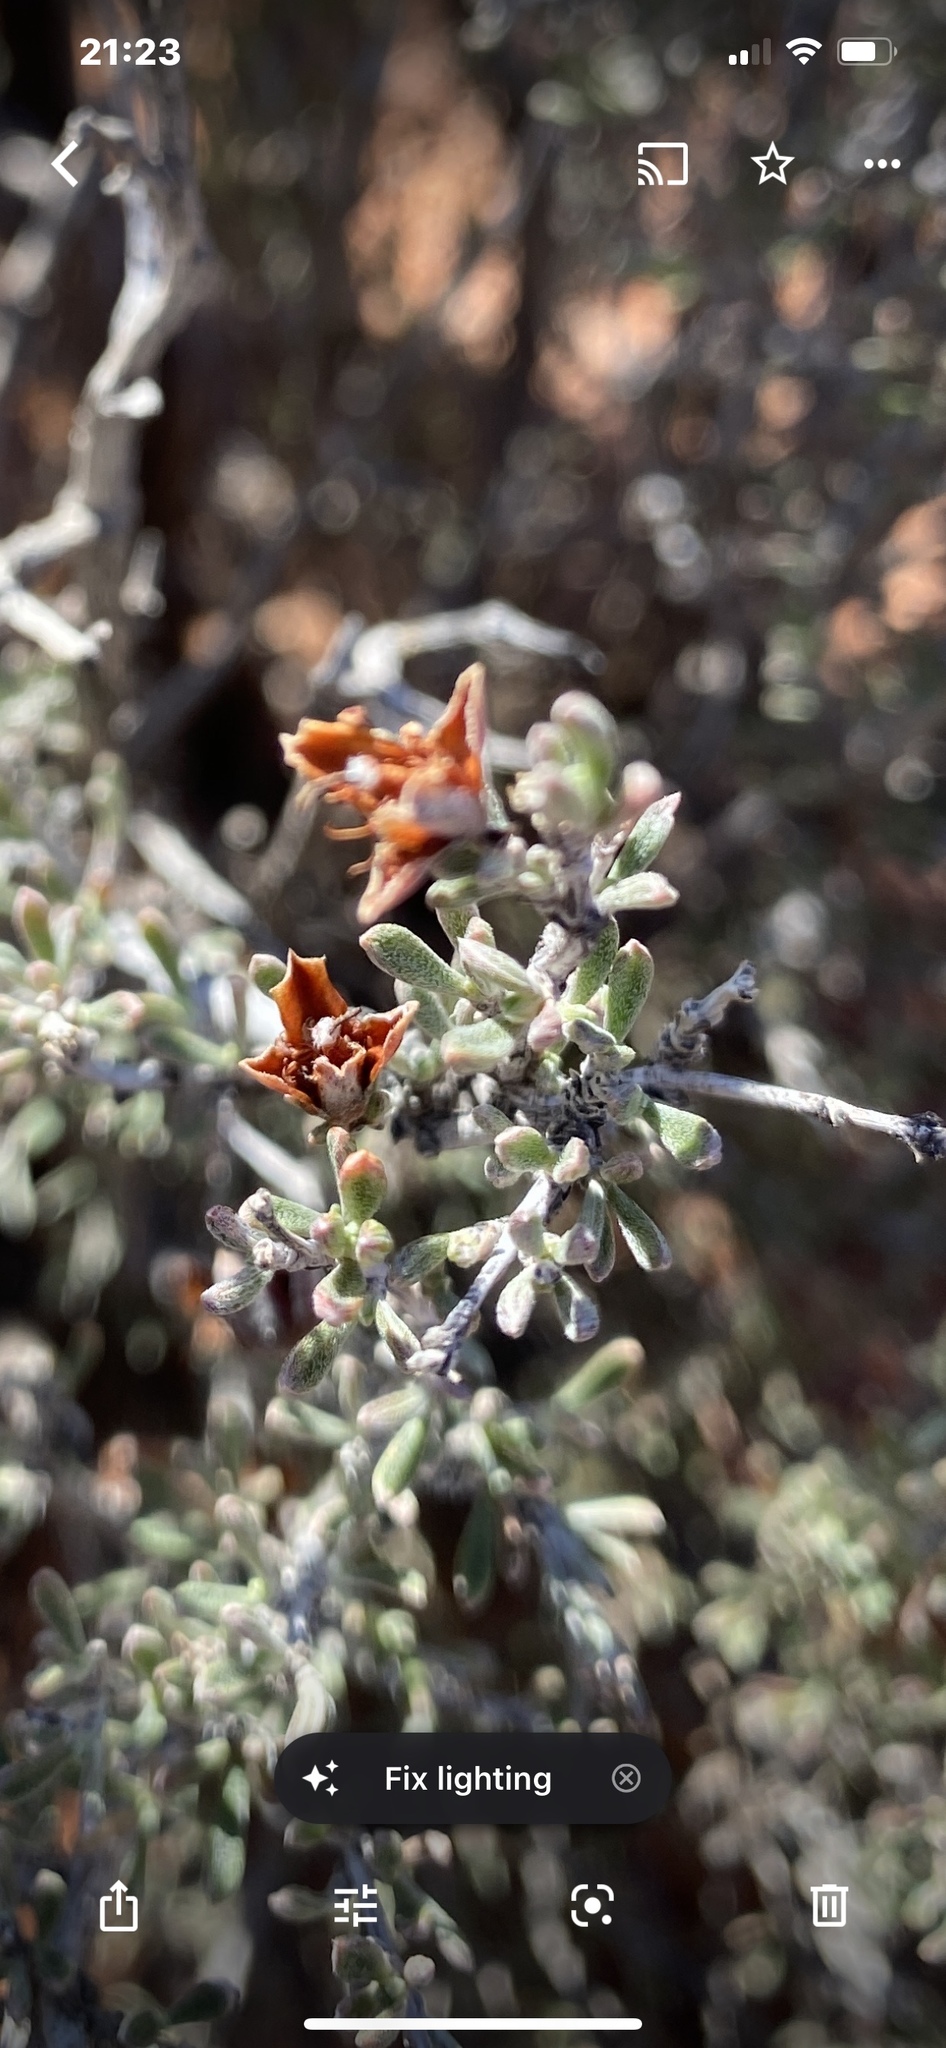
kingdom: Plantae
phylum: Tracheophyta
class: Magnoliopsida
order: Rosales
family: Rosaceae
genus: Coleogyne
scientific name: Coleogyne ramosissima
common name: Blackbrush
